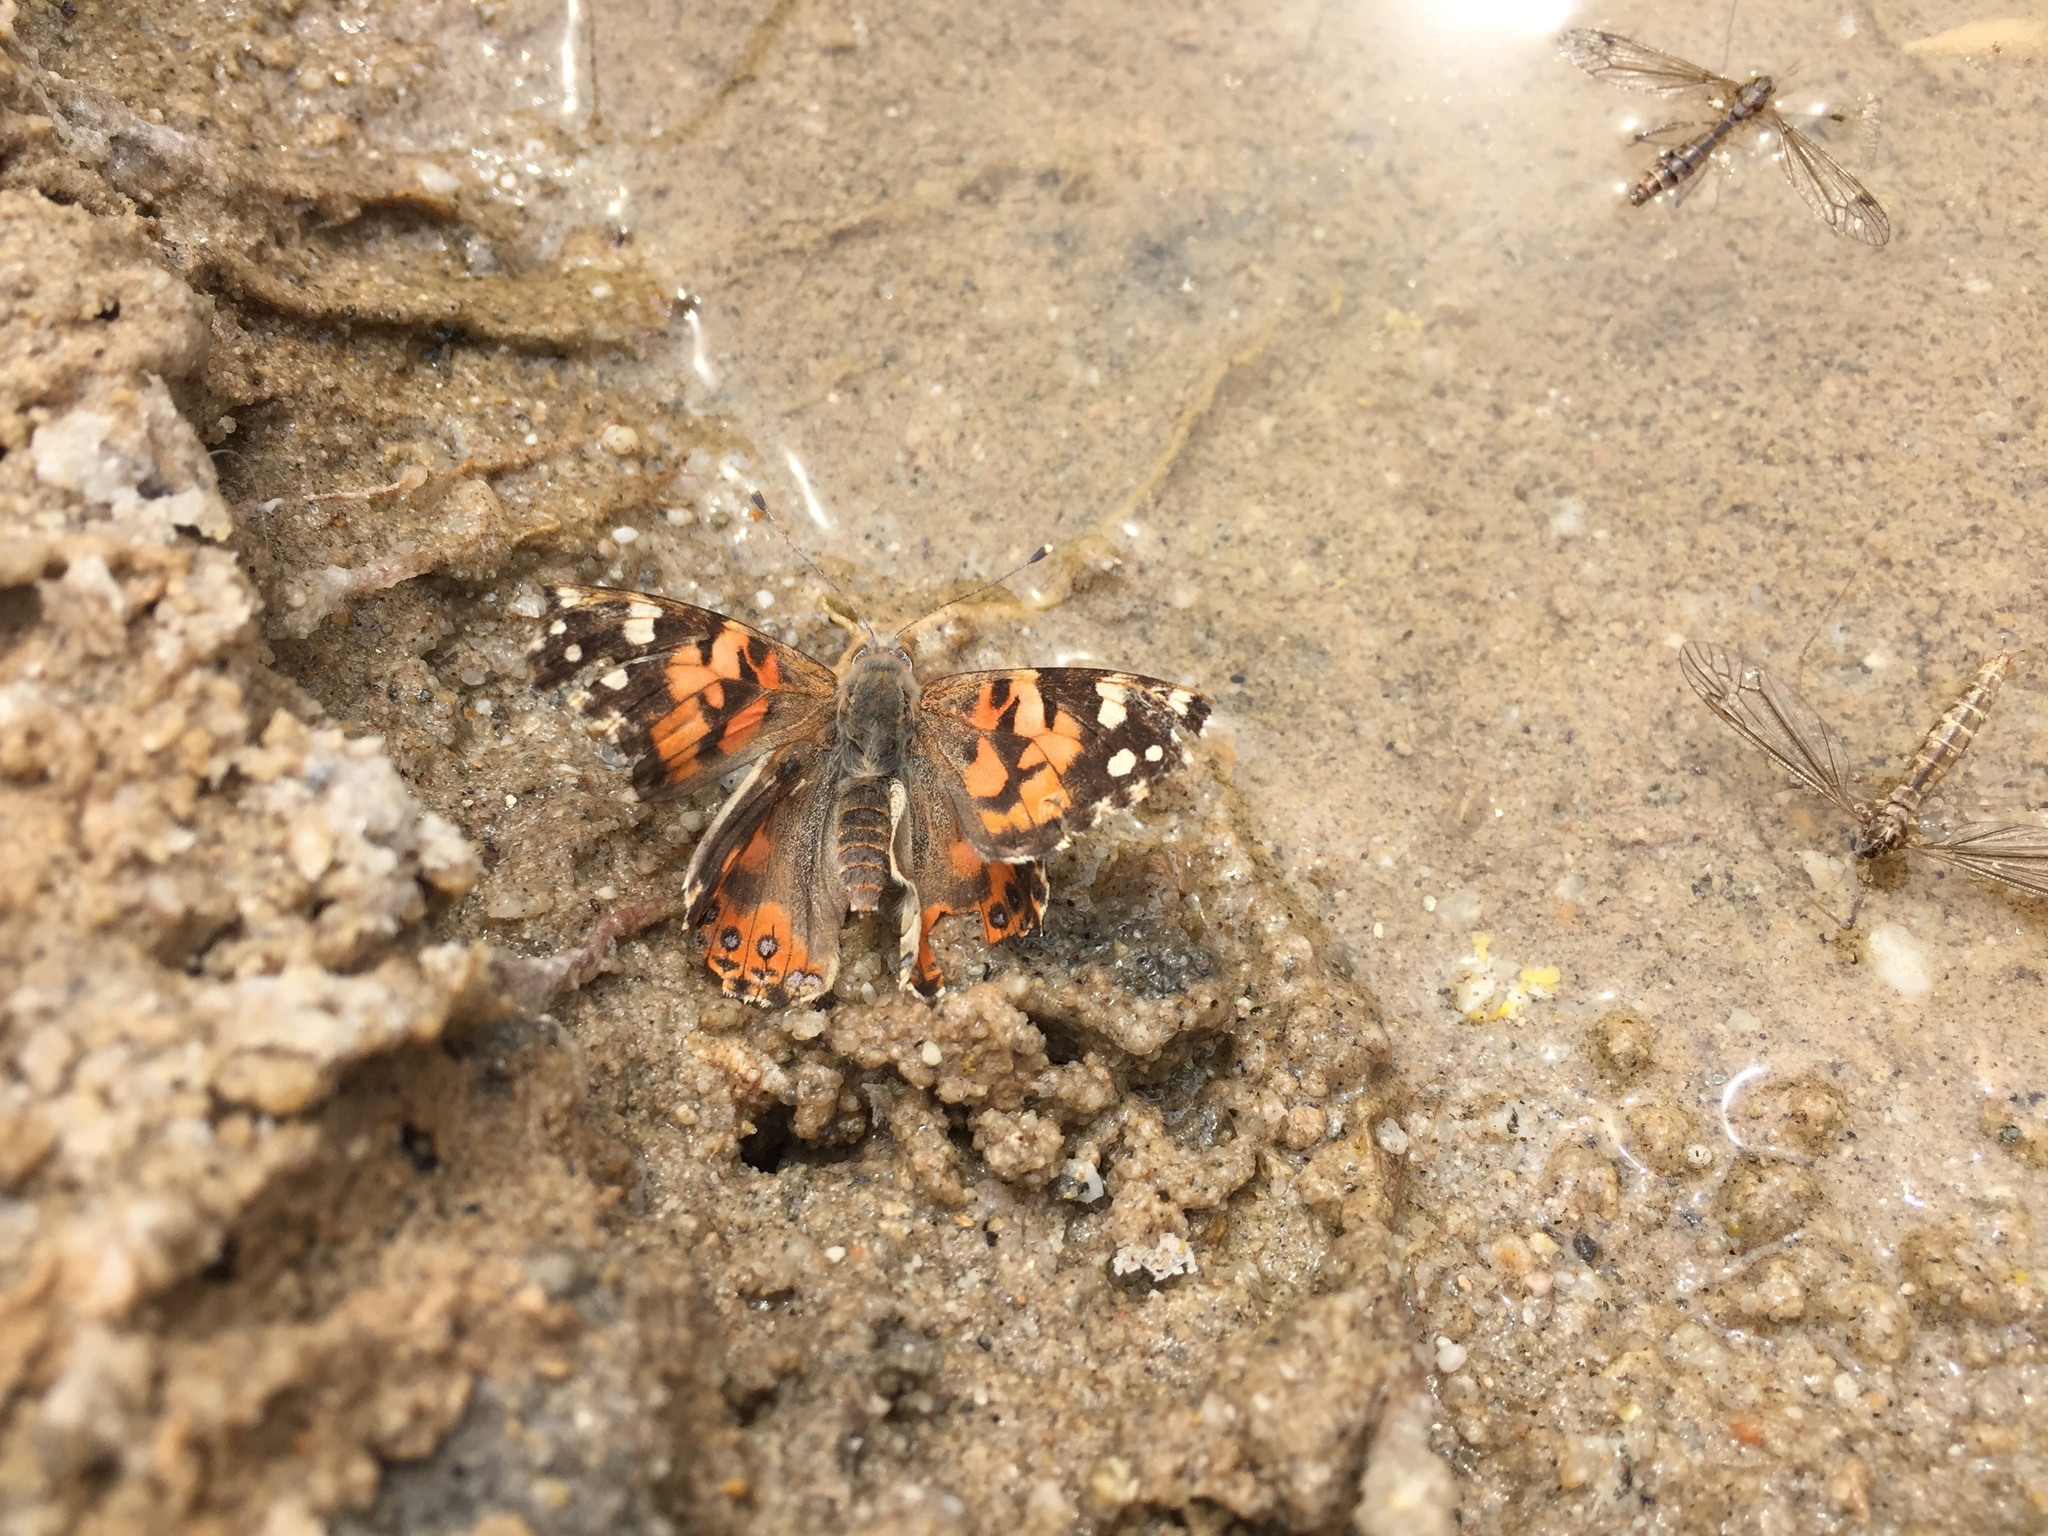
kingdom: Animalia
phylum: Arthropoda
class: Insecta
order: Lepidoptera
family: Nymphalidae
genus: Vanessa
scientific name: Vanessa cardui
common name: Painted lady
